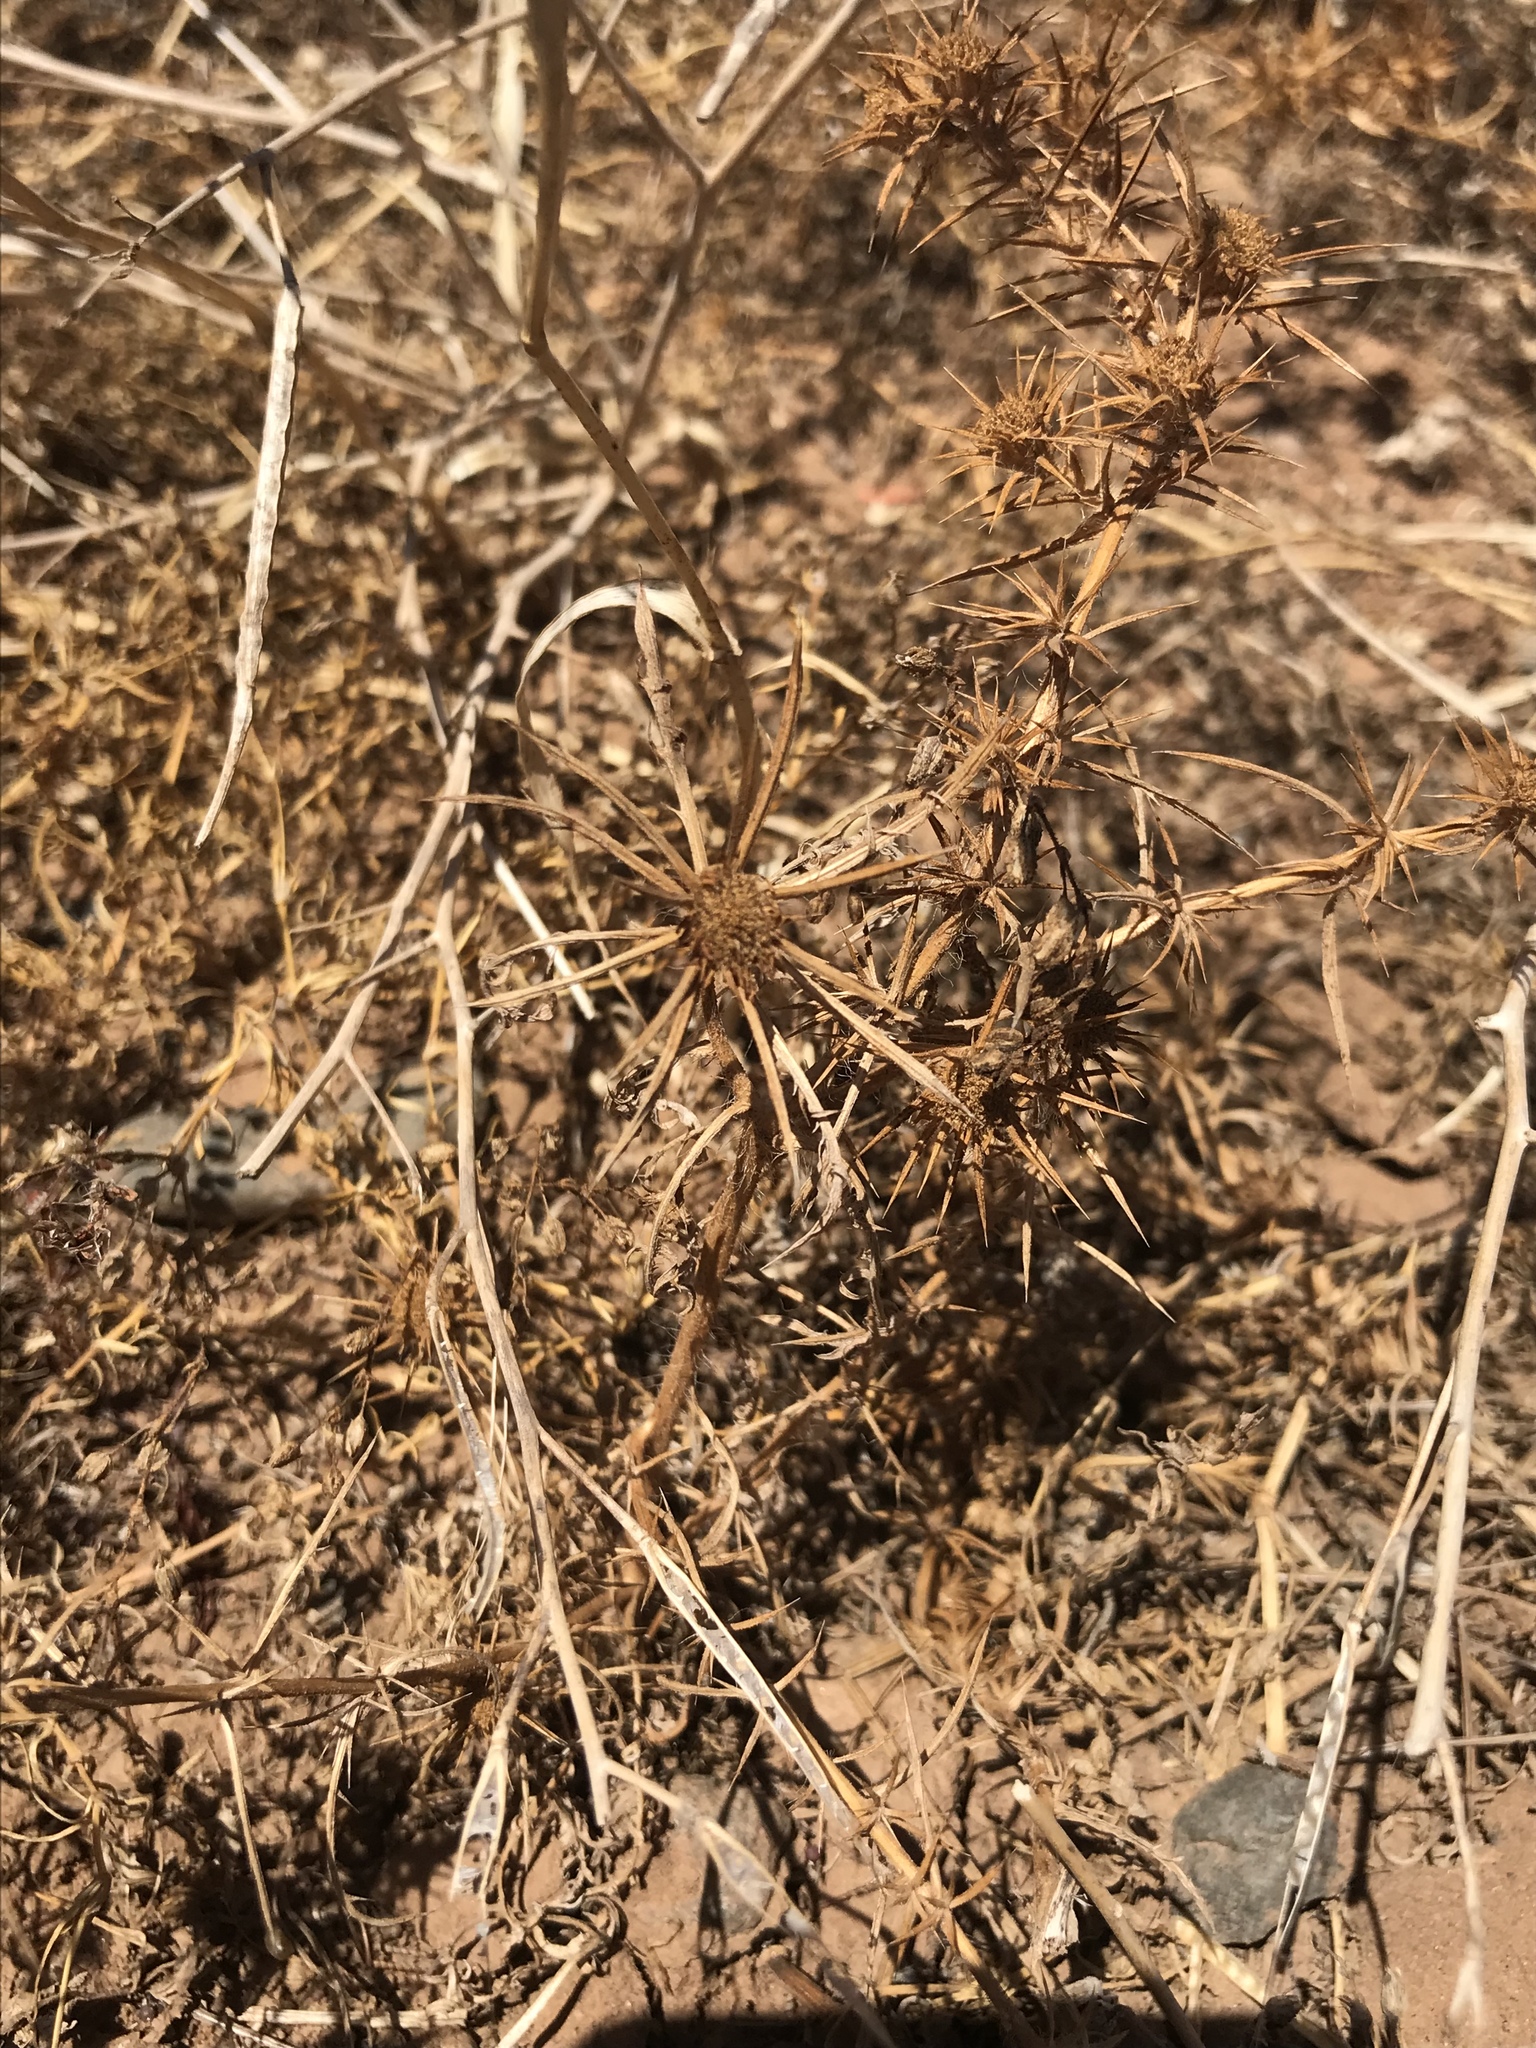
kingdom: Plantae
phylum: Tracheophyta
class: Magnoliopsida
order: Apiales
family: Apiaceae
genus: Eryngium
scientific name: Eryngium aristulatum
